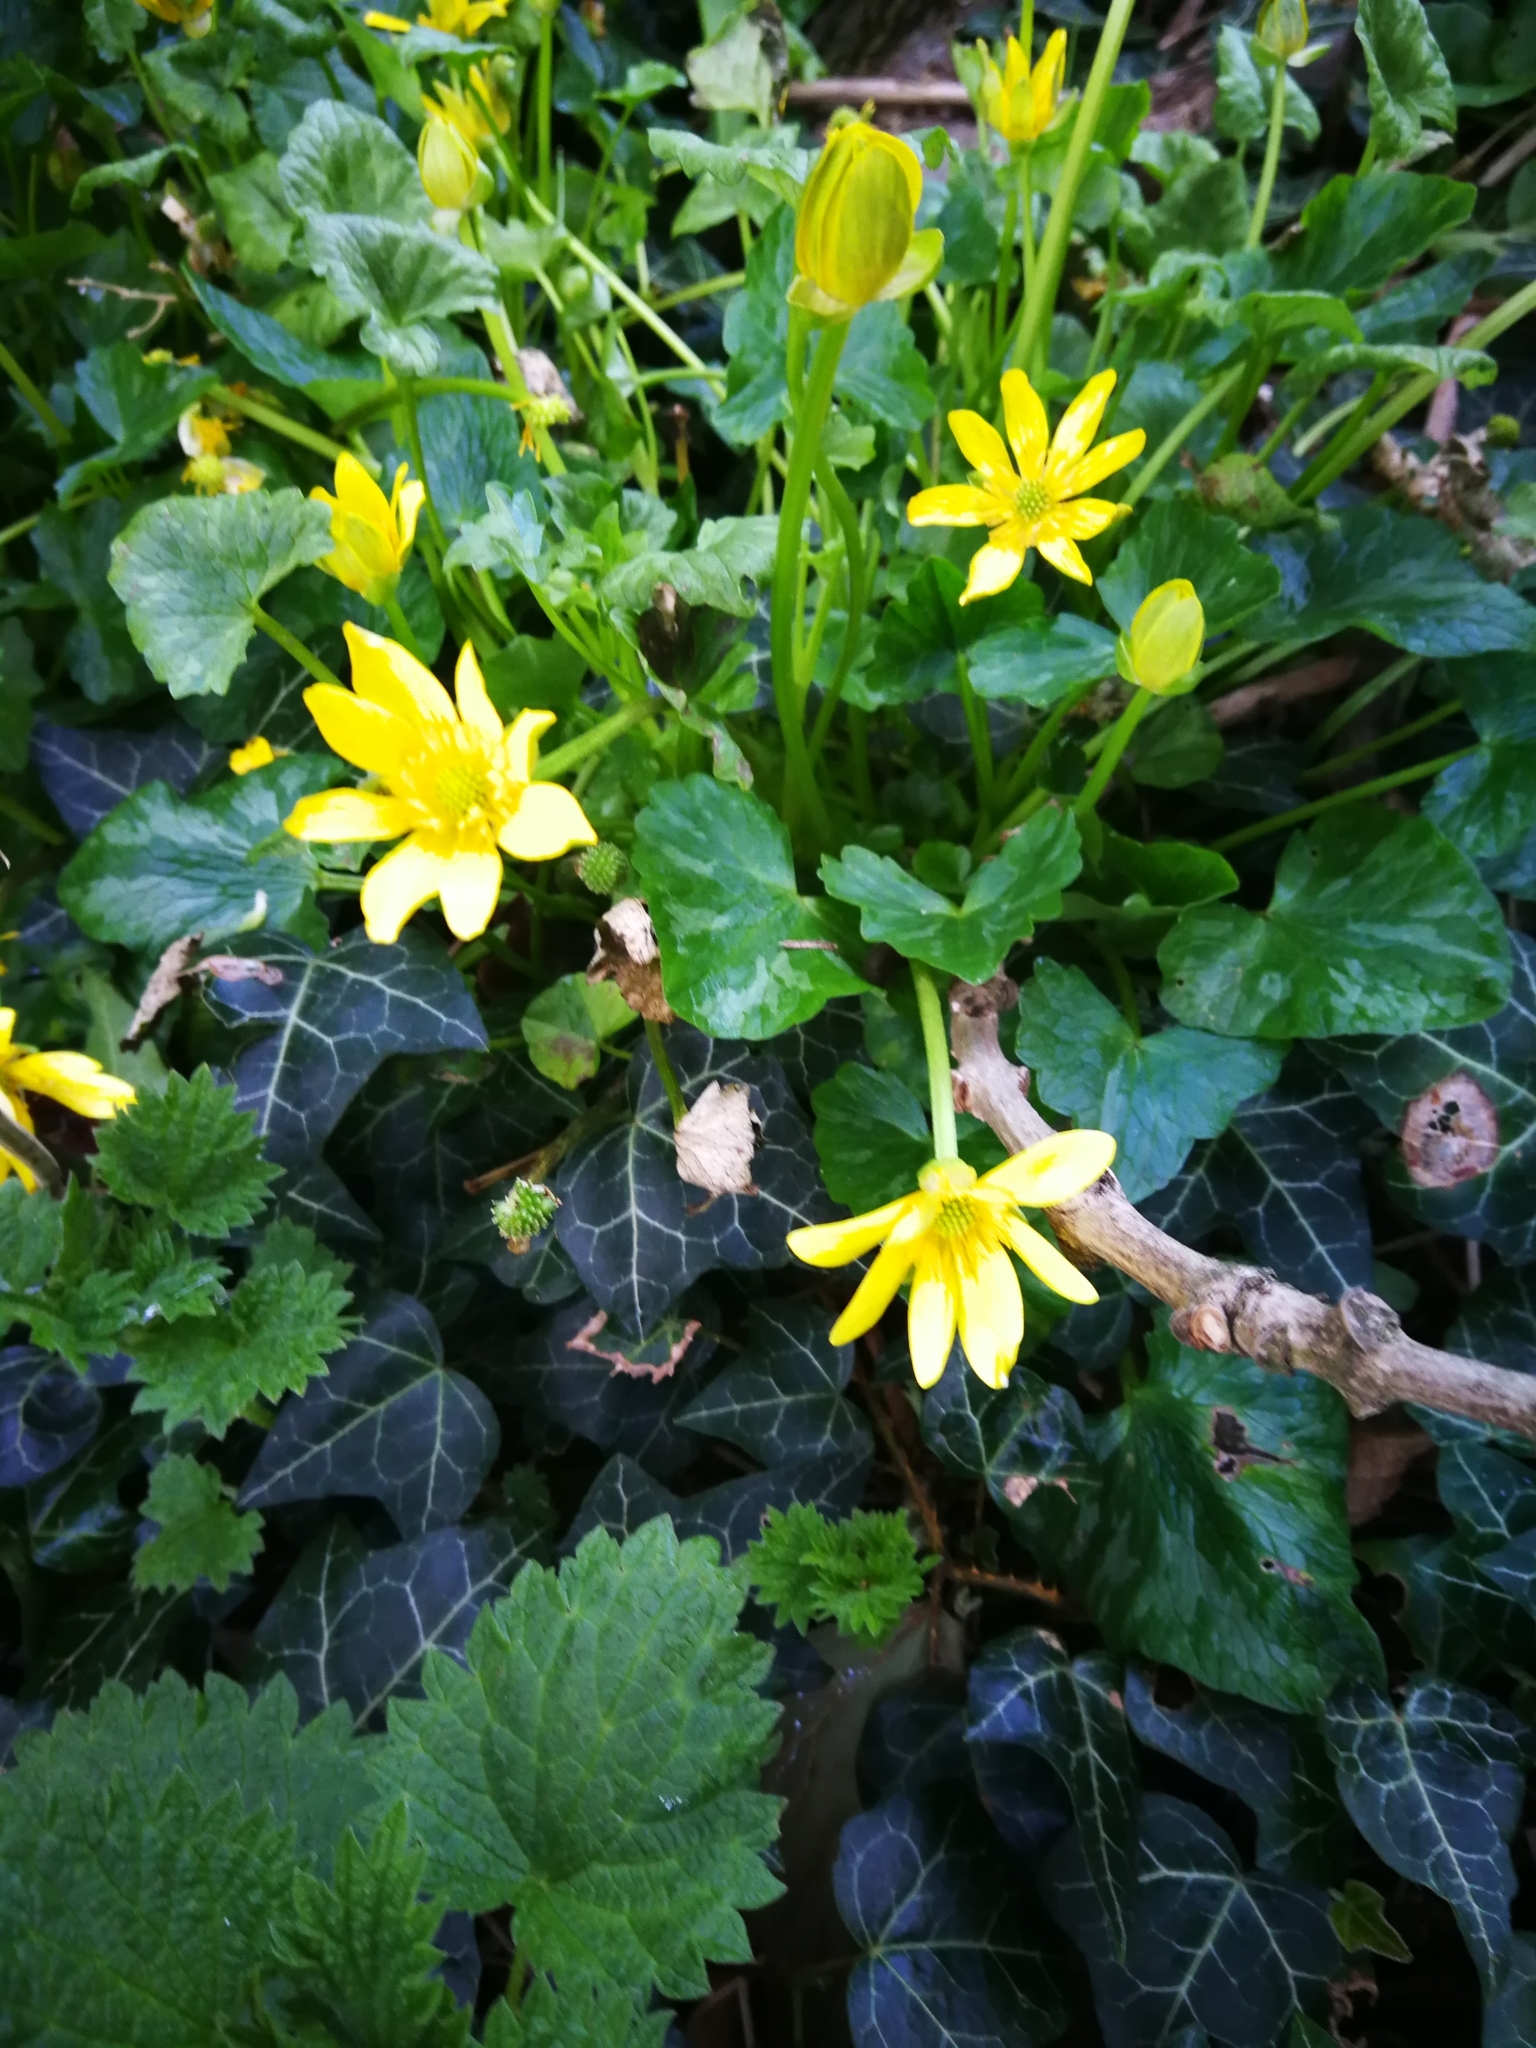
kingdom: Plantae
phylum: Tracheophyta
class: Magnoliopsida
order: Ranunculales
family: Ranunculaceae
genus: Ficaria
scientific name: Ficaria verna
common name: Lesser celandine
